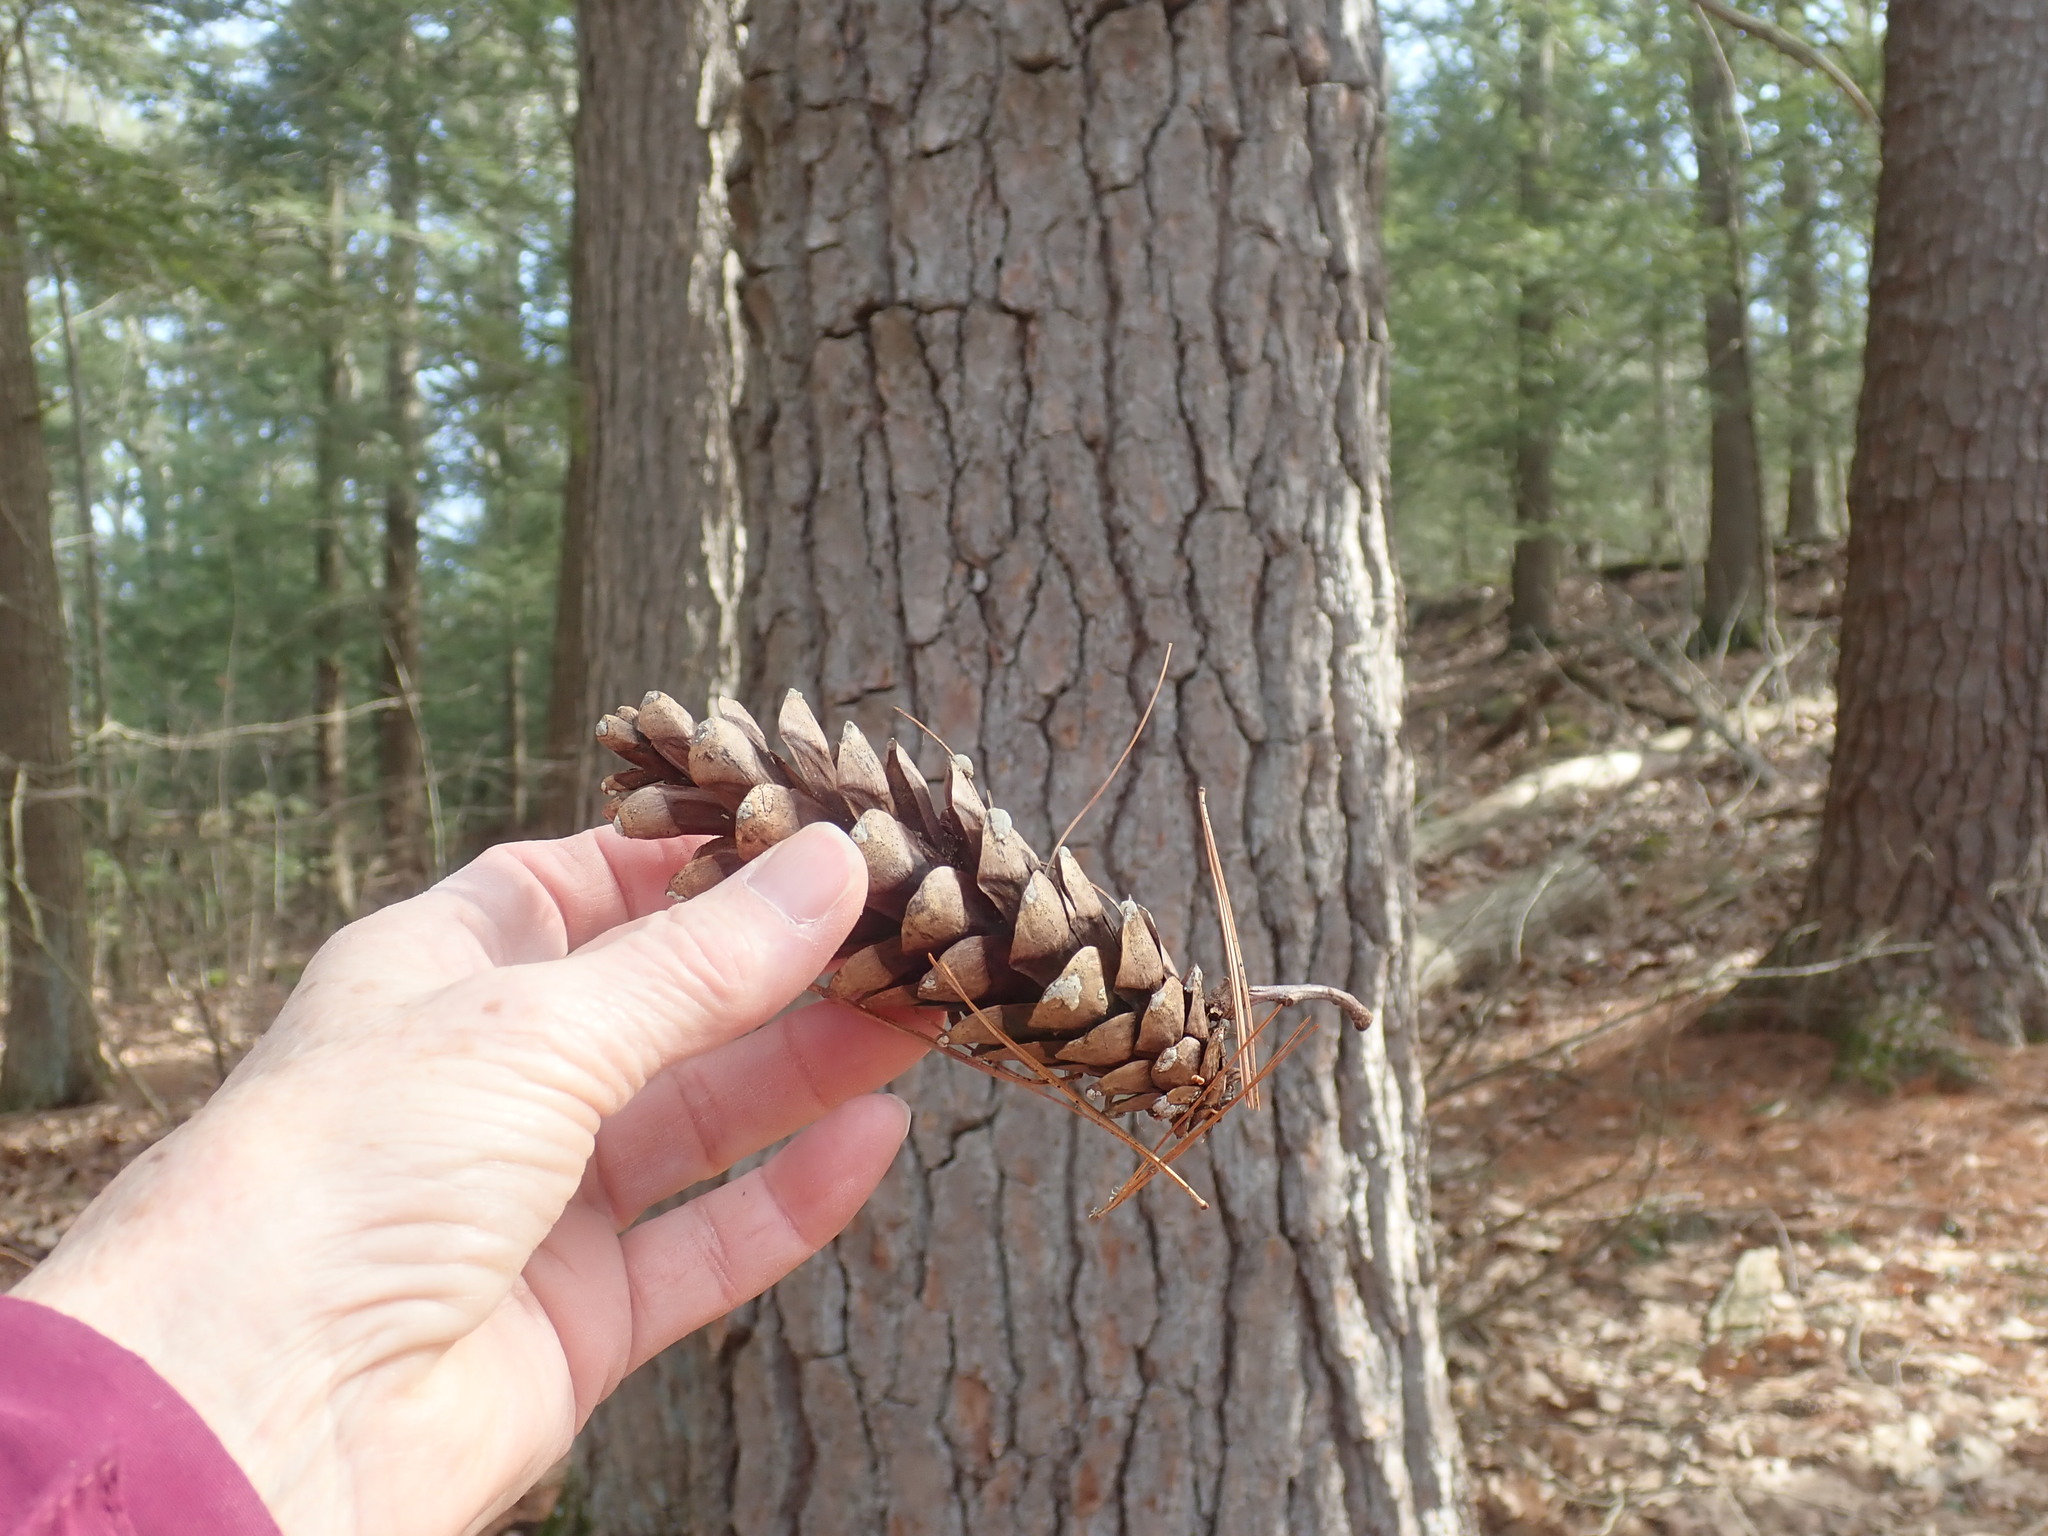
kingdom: Plantae
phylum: Tracheophyta
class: Pinopsida
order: Pinales
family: Pinaceae
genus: Pinus
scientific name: Pinus strobus
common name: Weymouth pine
